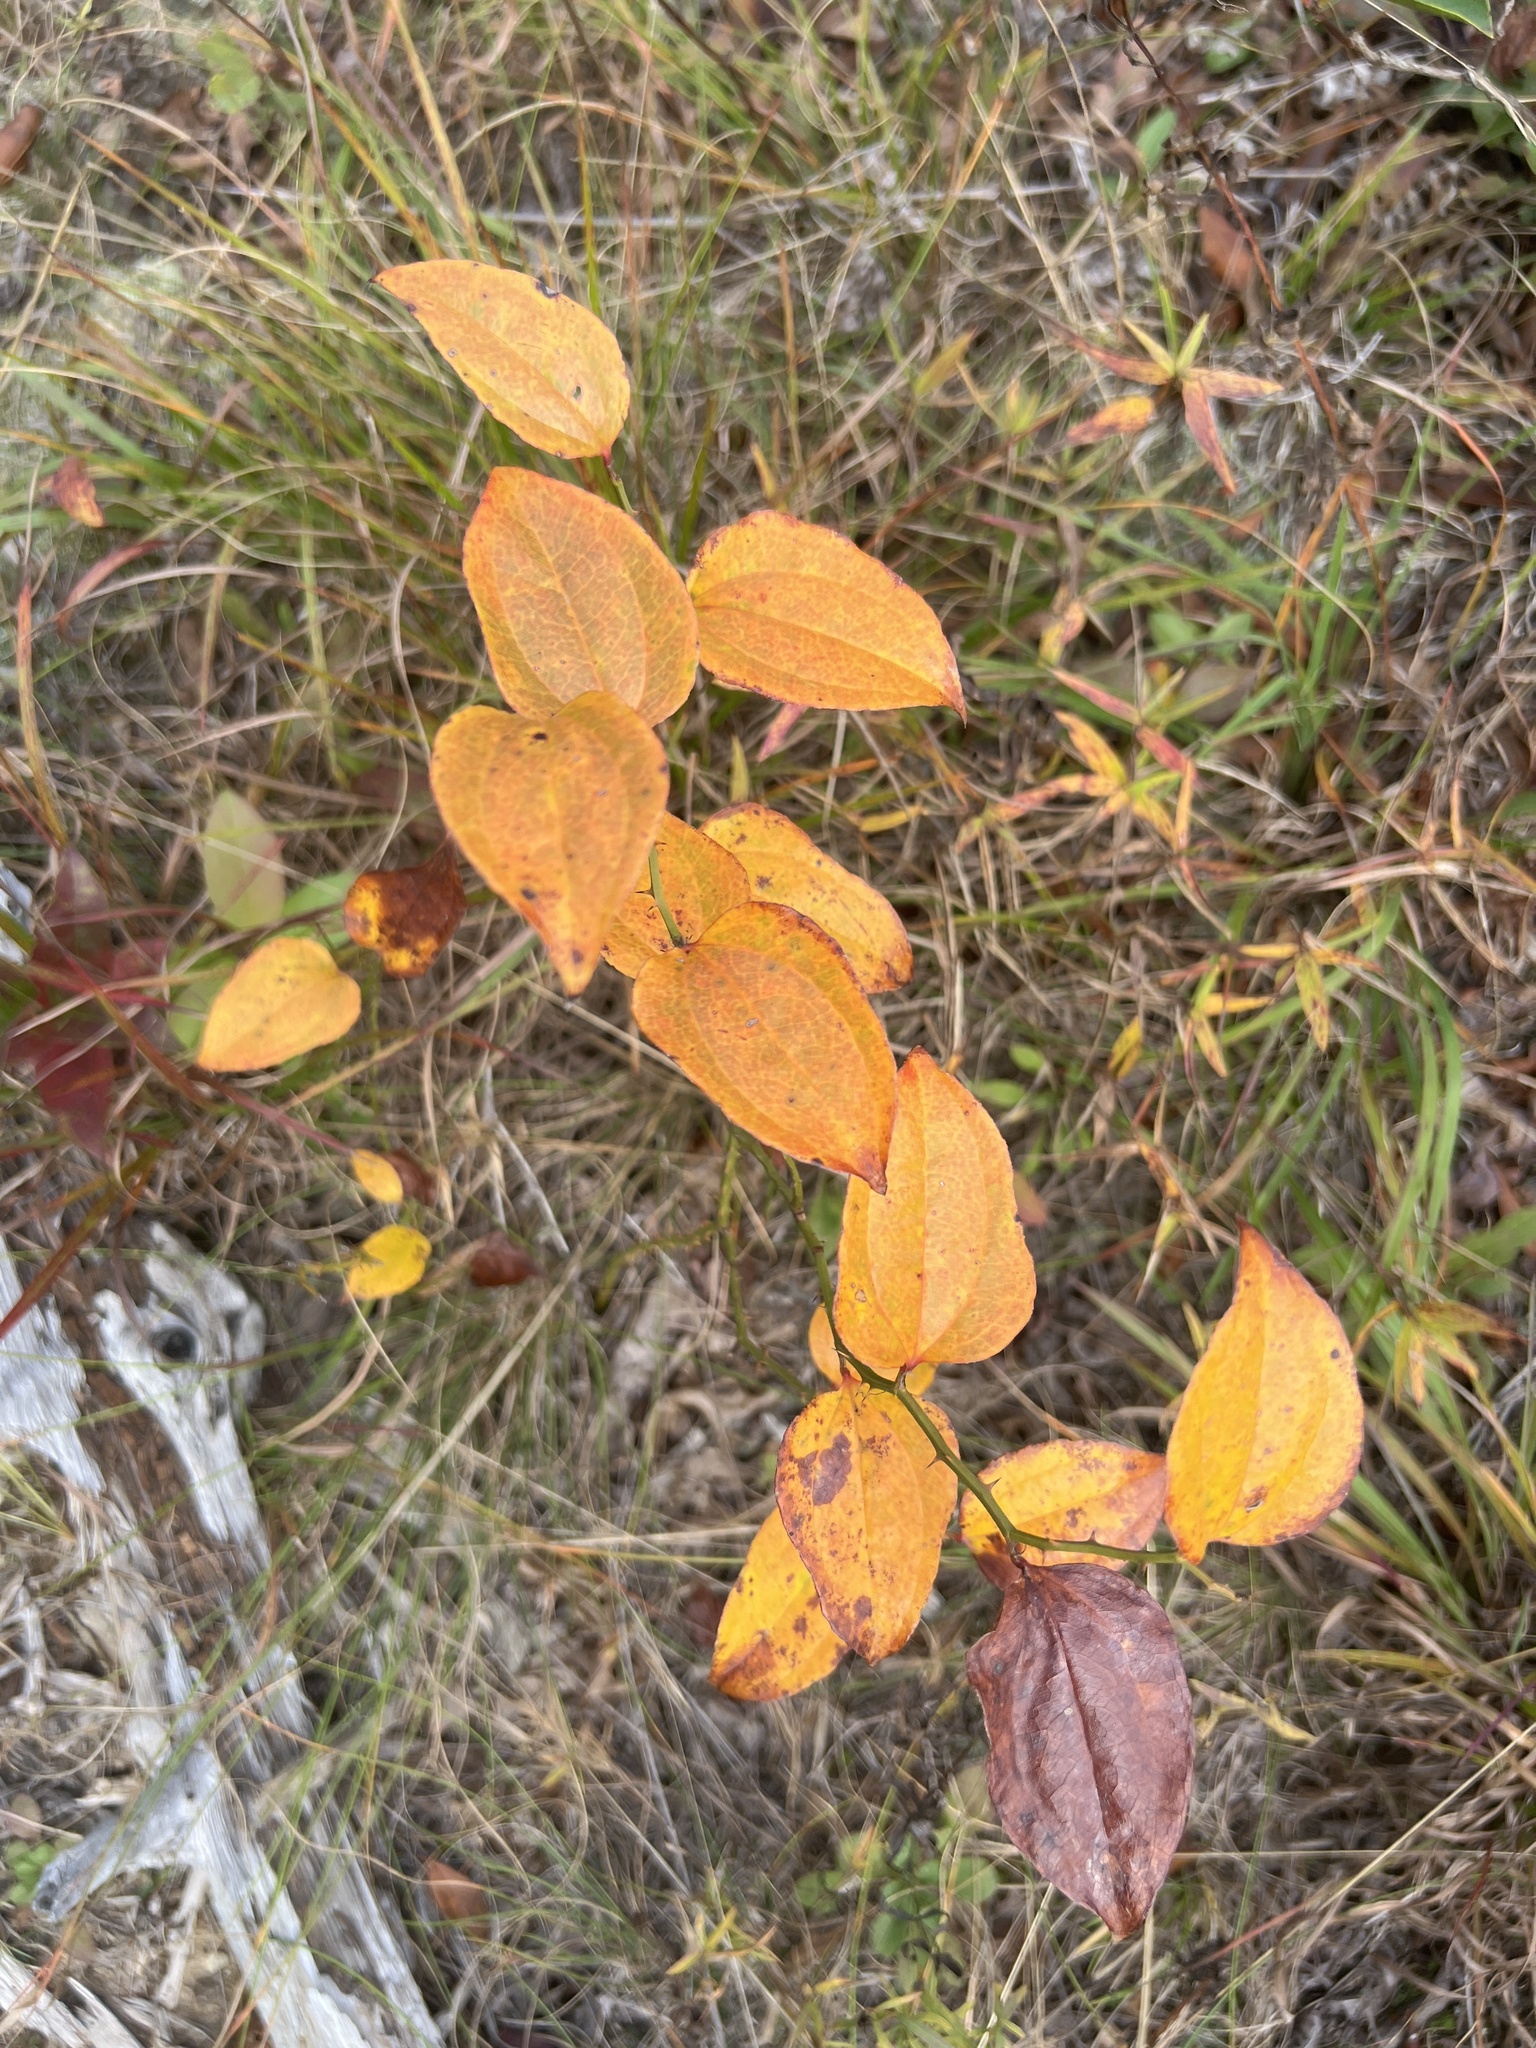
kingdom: Plantae
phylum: Tracheophyta
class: Liliopsida
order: Liliales
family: Smilacaceae
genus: Smilax
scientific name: Smilax rotundifolia
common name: Bullbriar
